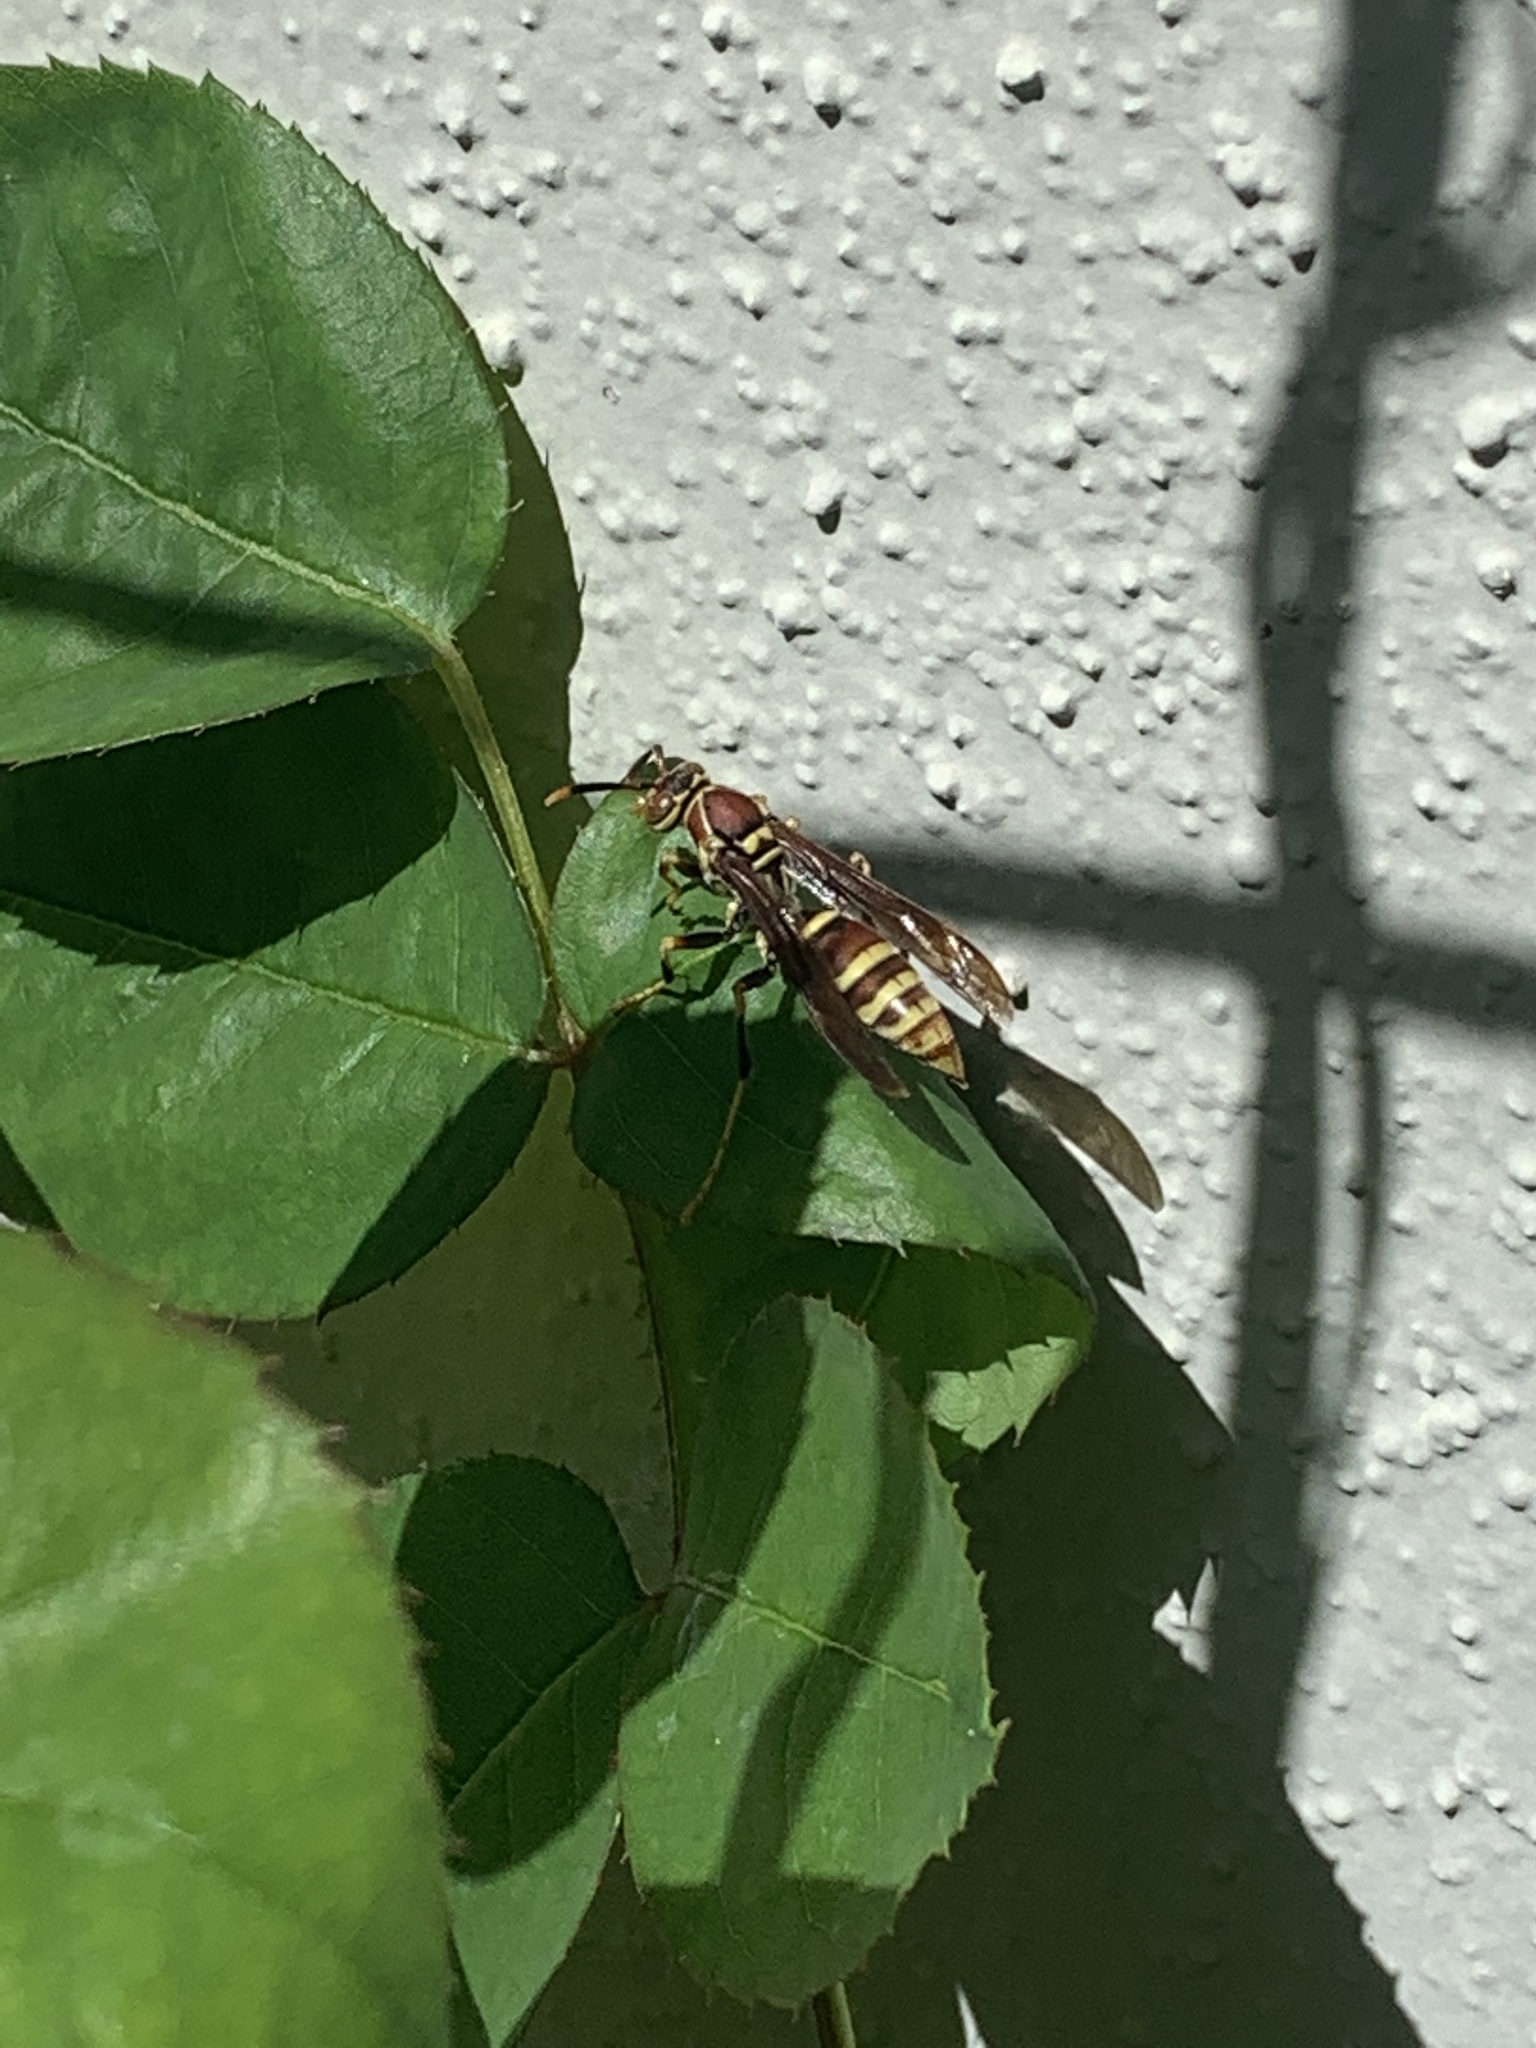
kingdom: Animalia
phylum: Arthropoda
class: Insecta
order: Hymenoptera
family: Eumenidae
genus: Polistes
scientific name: Polistes exclamans
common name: Paper wasp
